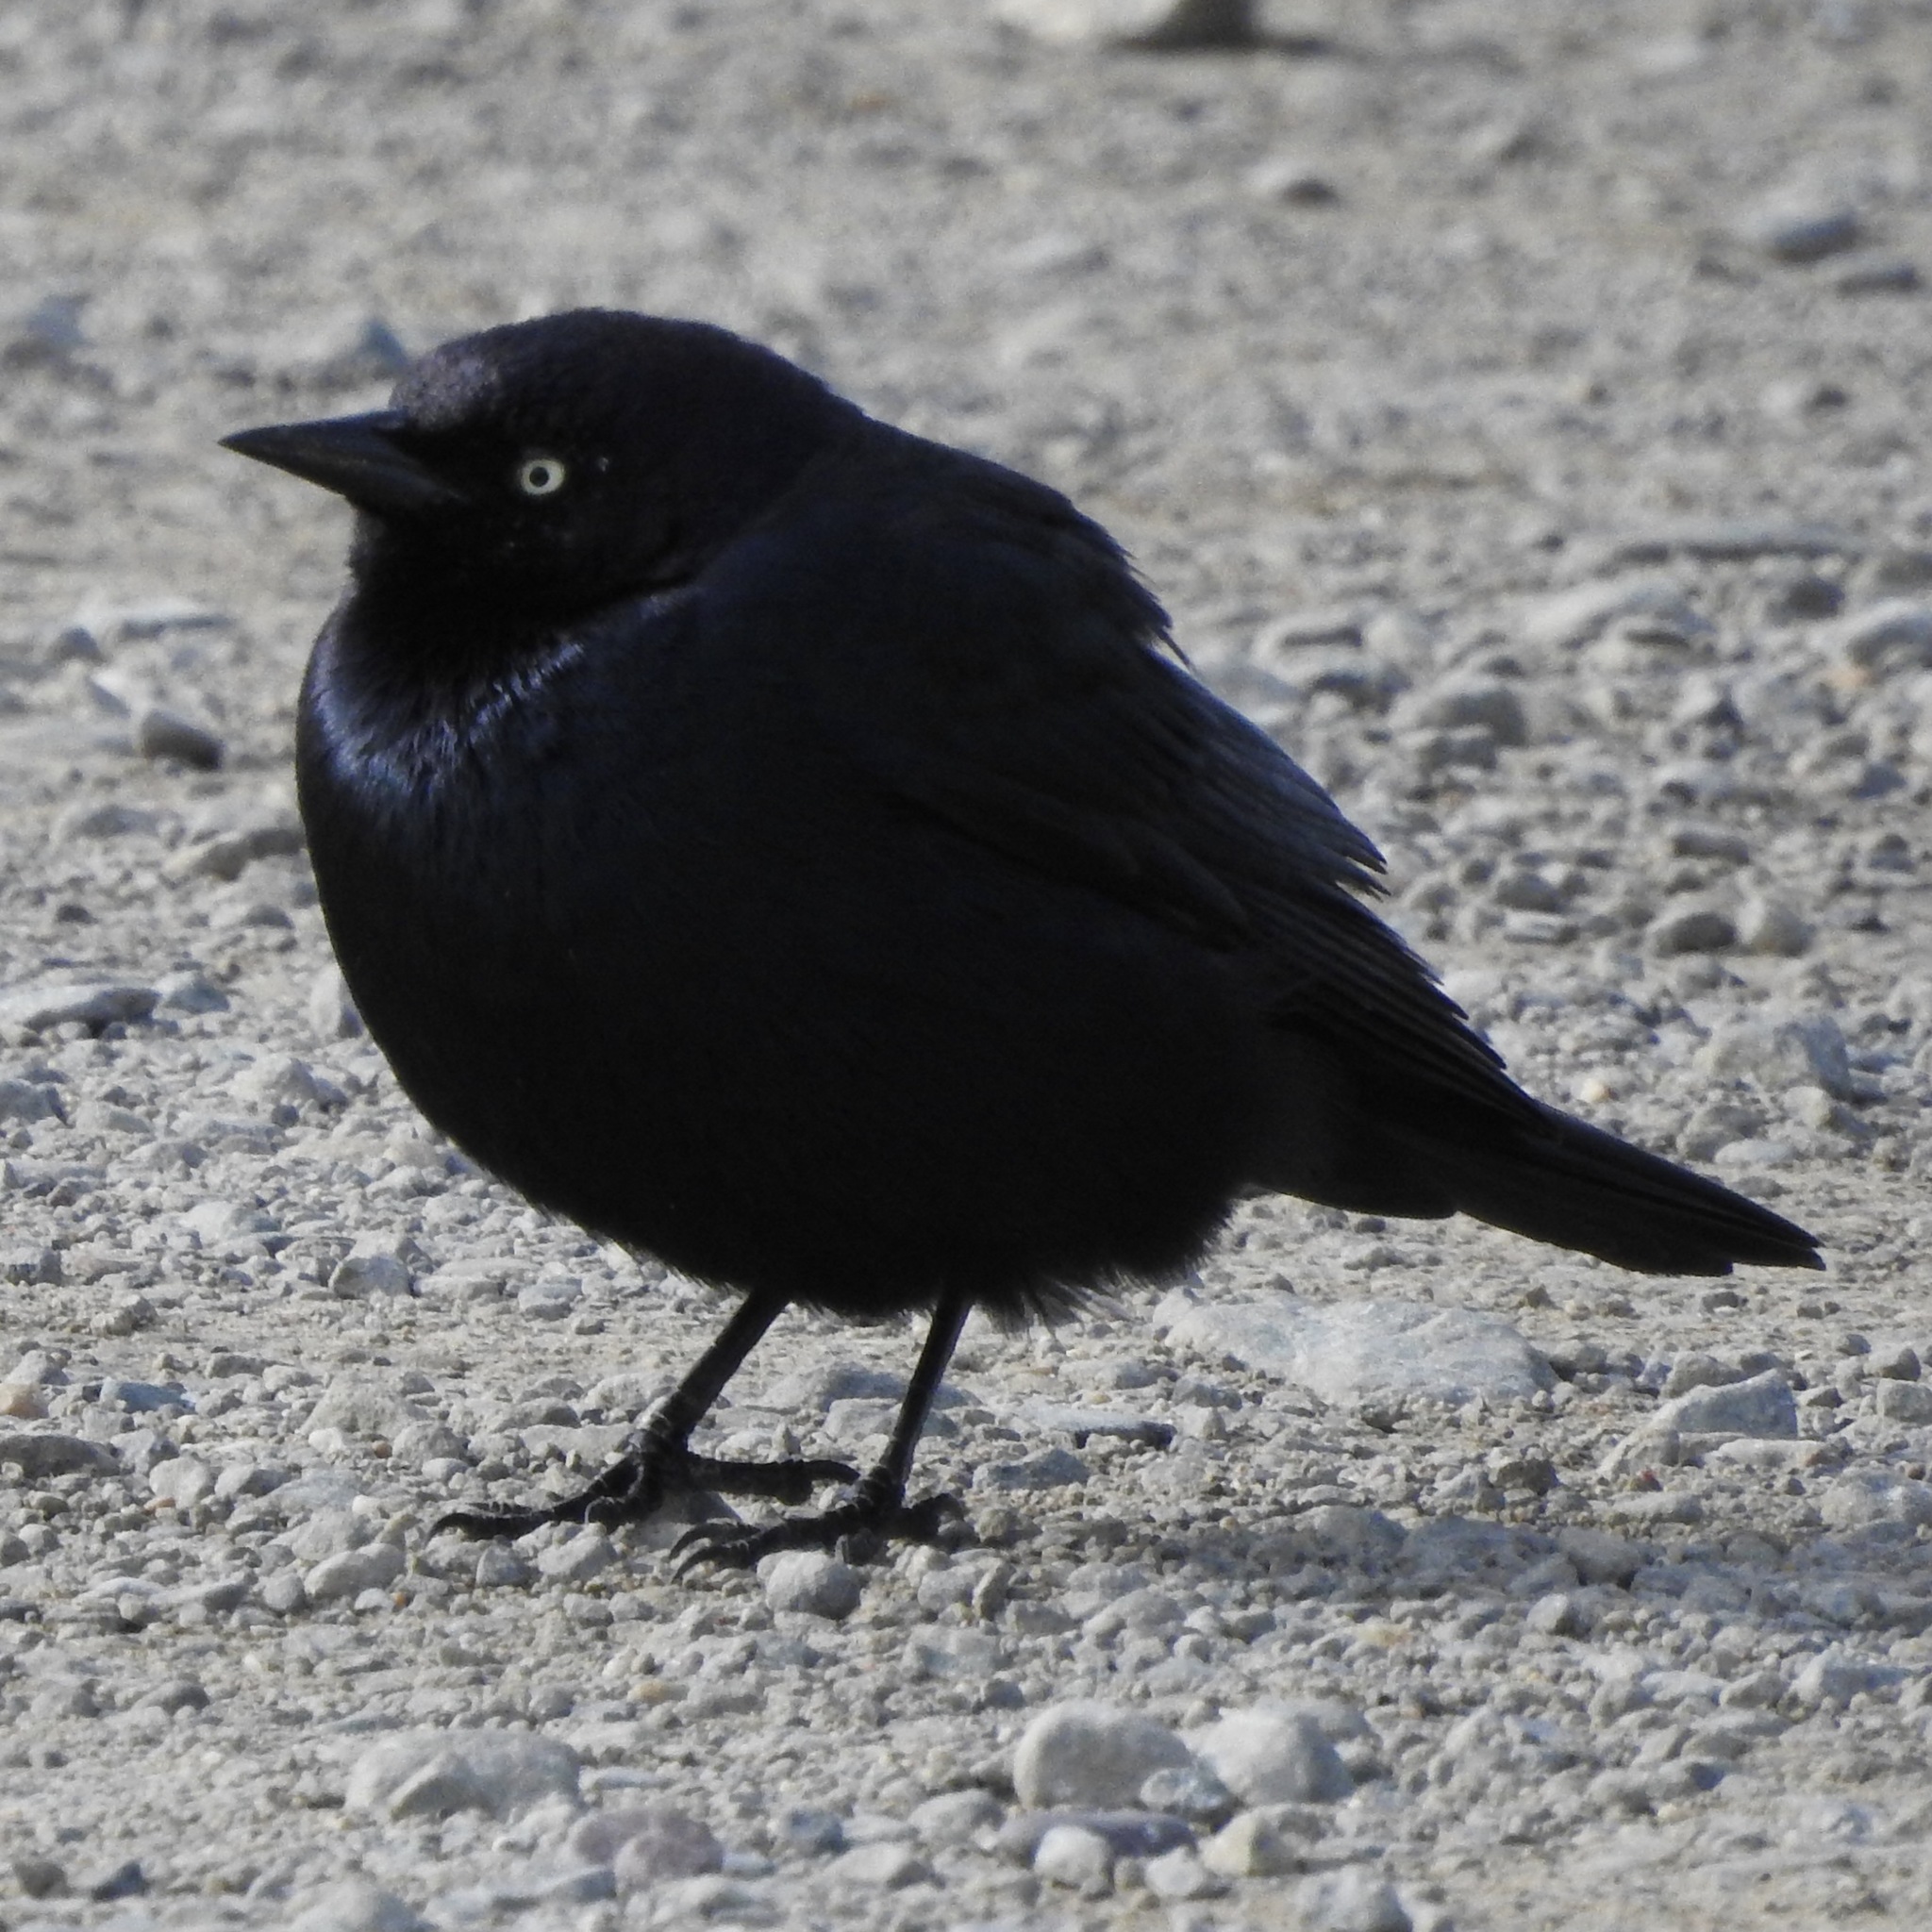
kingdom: Animalia
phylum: Chordata
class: Aves
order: Passeriformes
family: Icteridae
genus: Euphagus
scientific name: Euphagus cyanocephalus
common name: Brewer's blackbird
